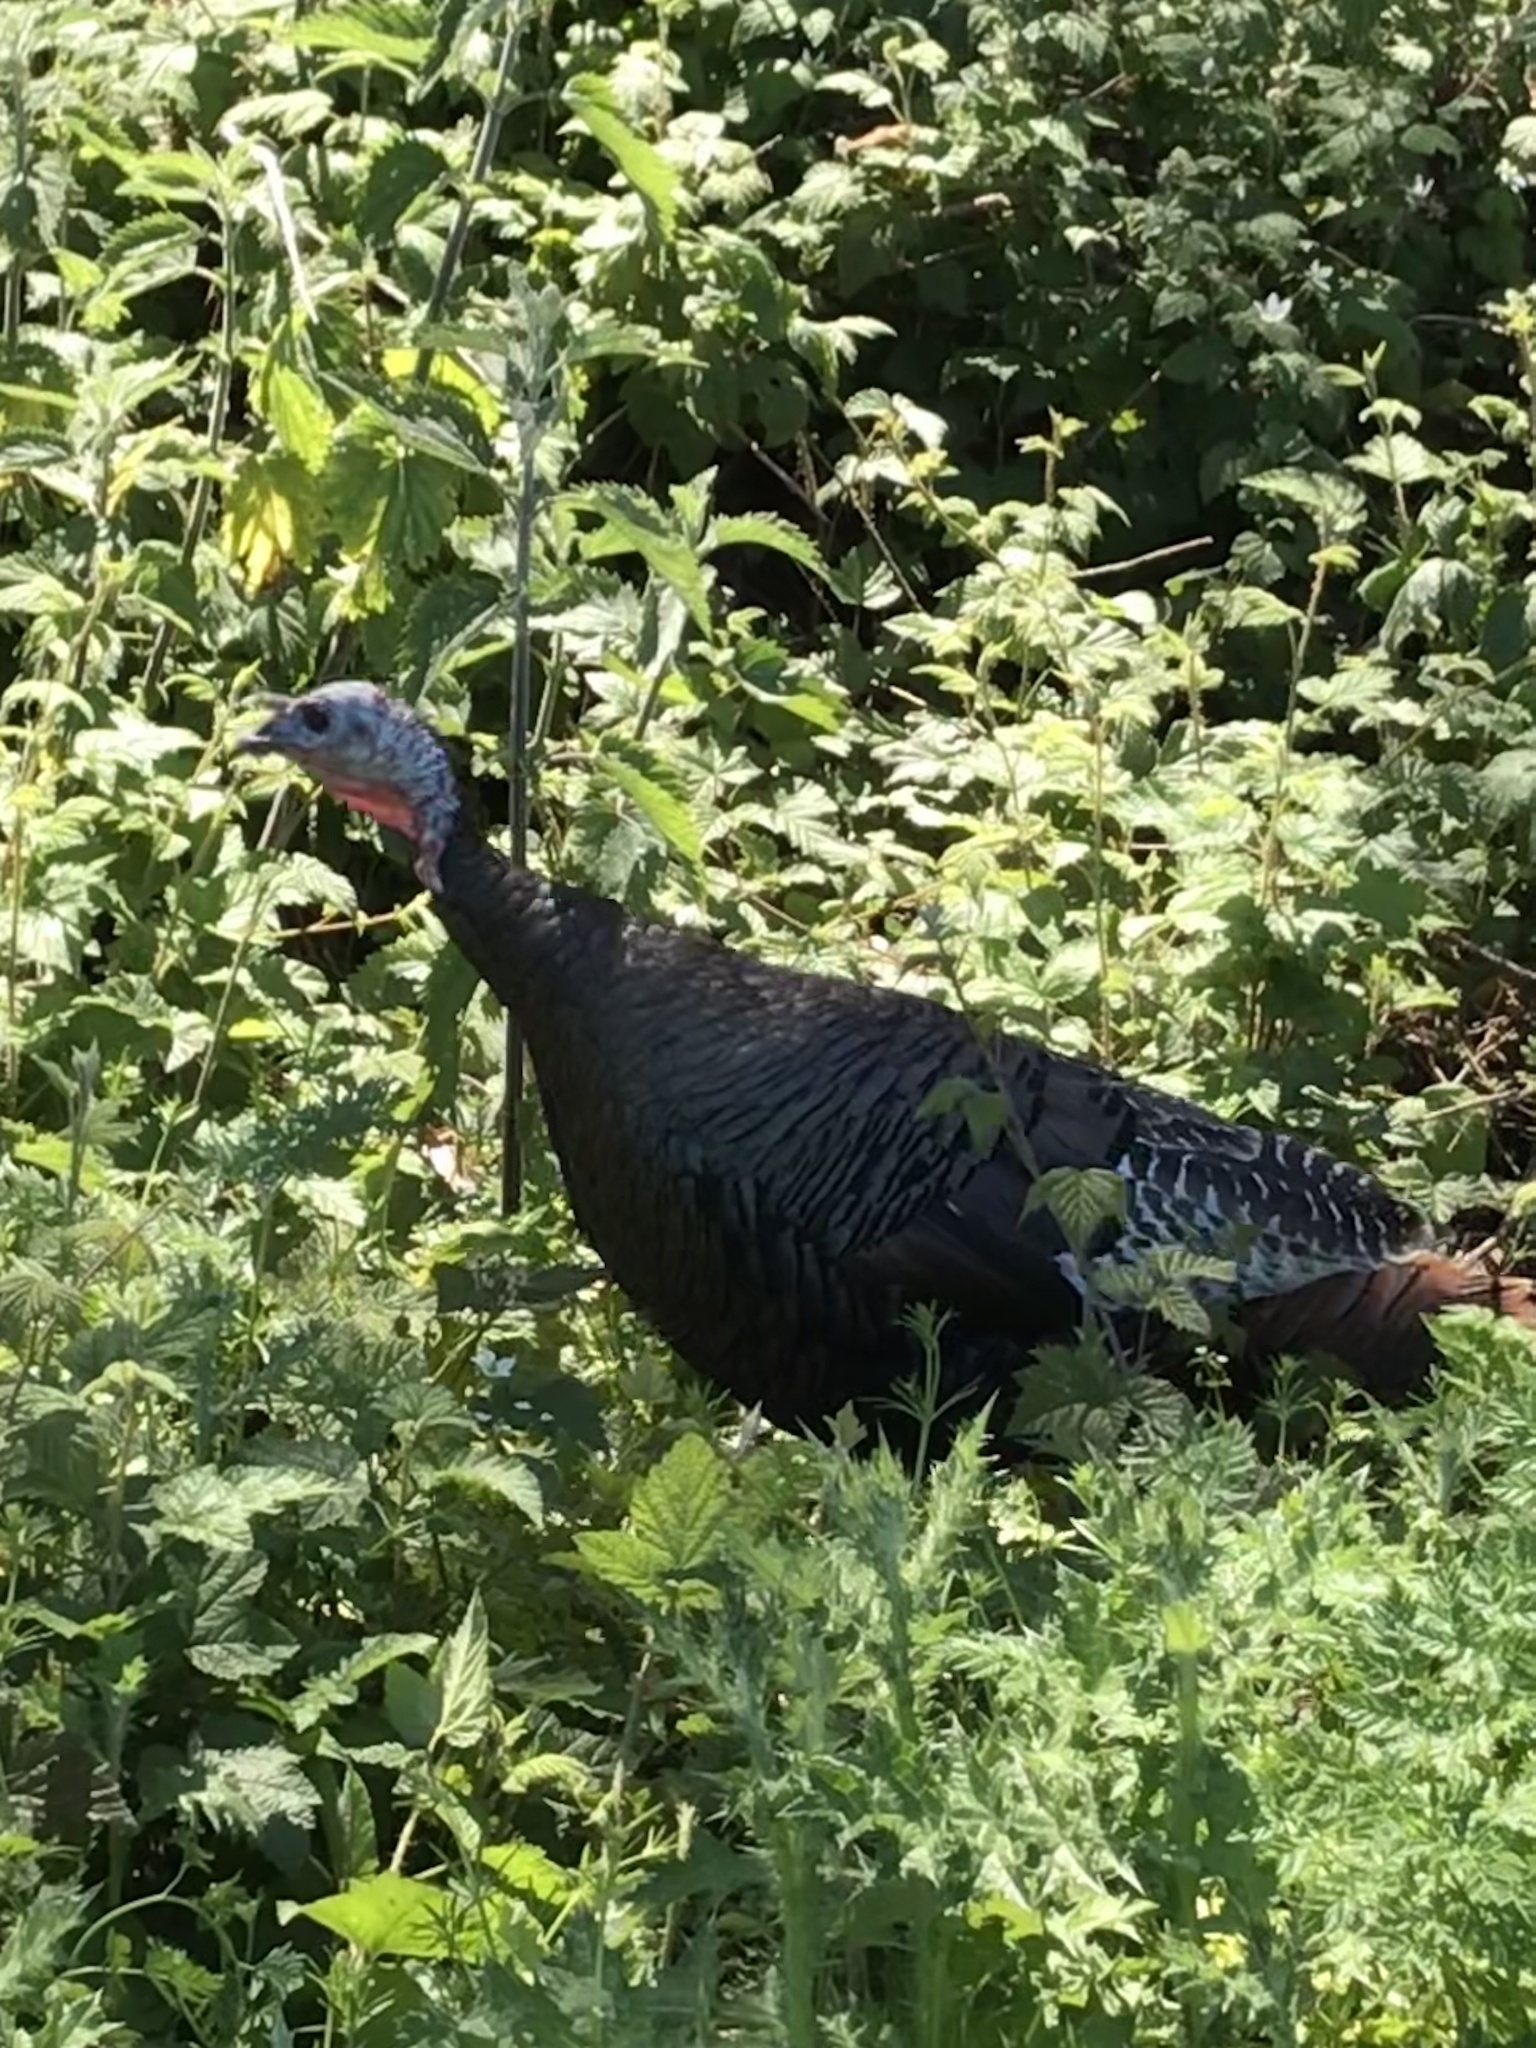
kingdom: Animalia
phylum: Chordata
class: Aves
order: Galliformes
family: Phasianidae
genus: Meleagris
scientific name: Meleagris gallopavo
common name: Wild turkey
